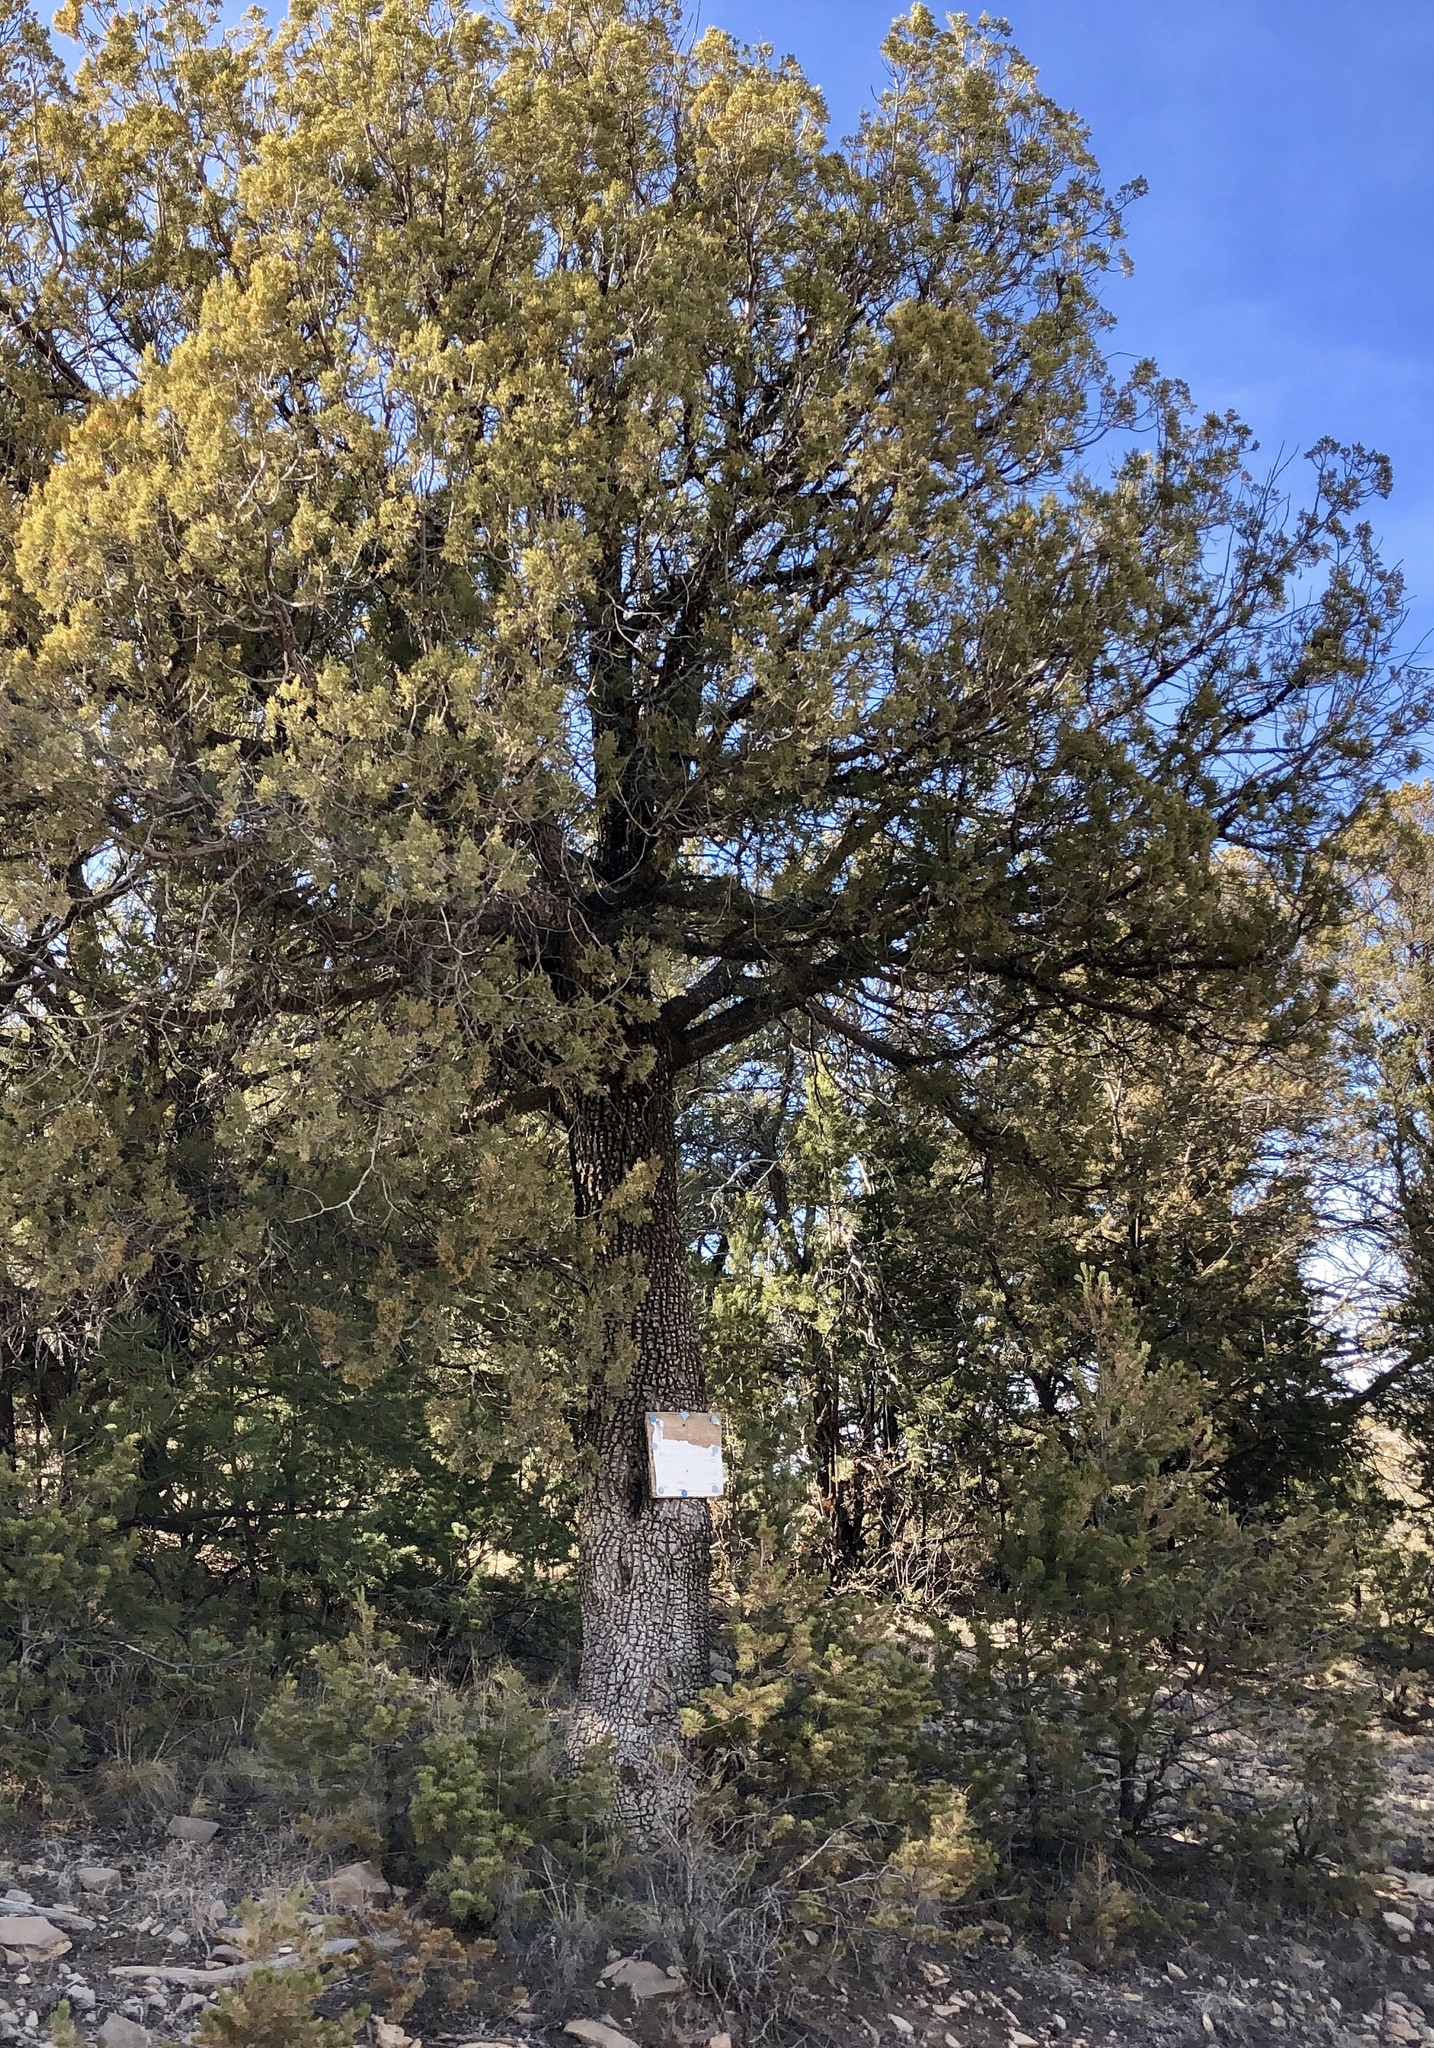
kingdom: Plantae
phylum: Tracheophyta
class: Pinopsida
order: Pinales
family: Cupressaceae
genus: Juniperus
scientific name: Juniperus deppeana
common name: Alligator juniper
